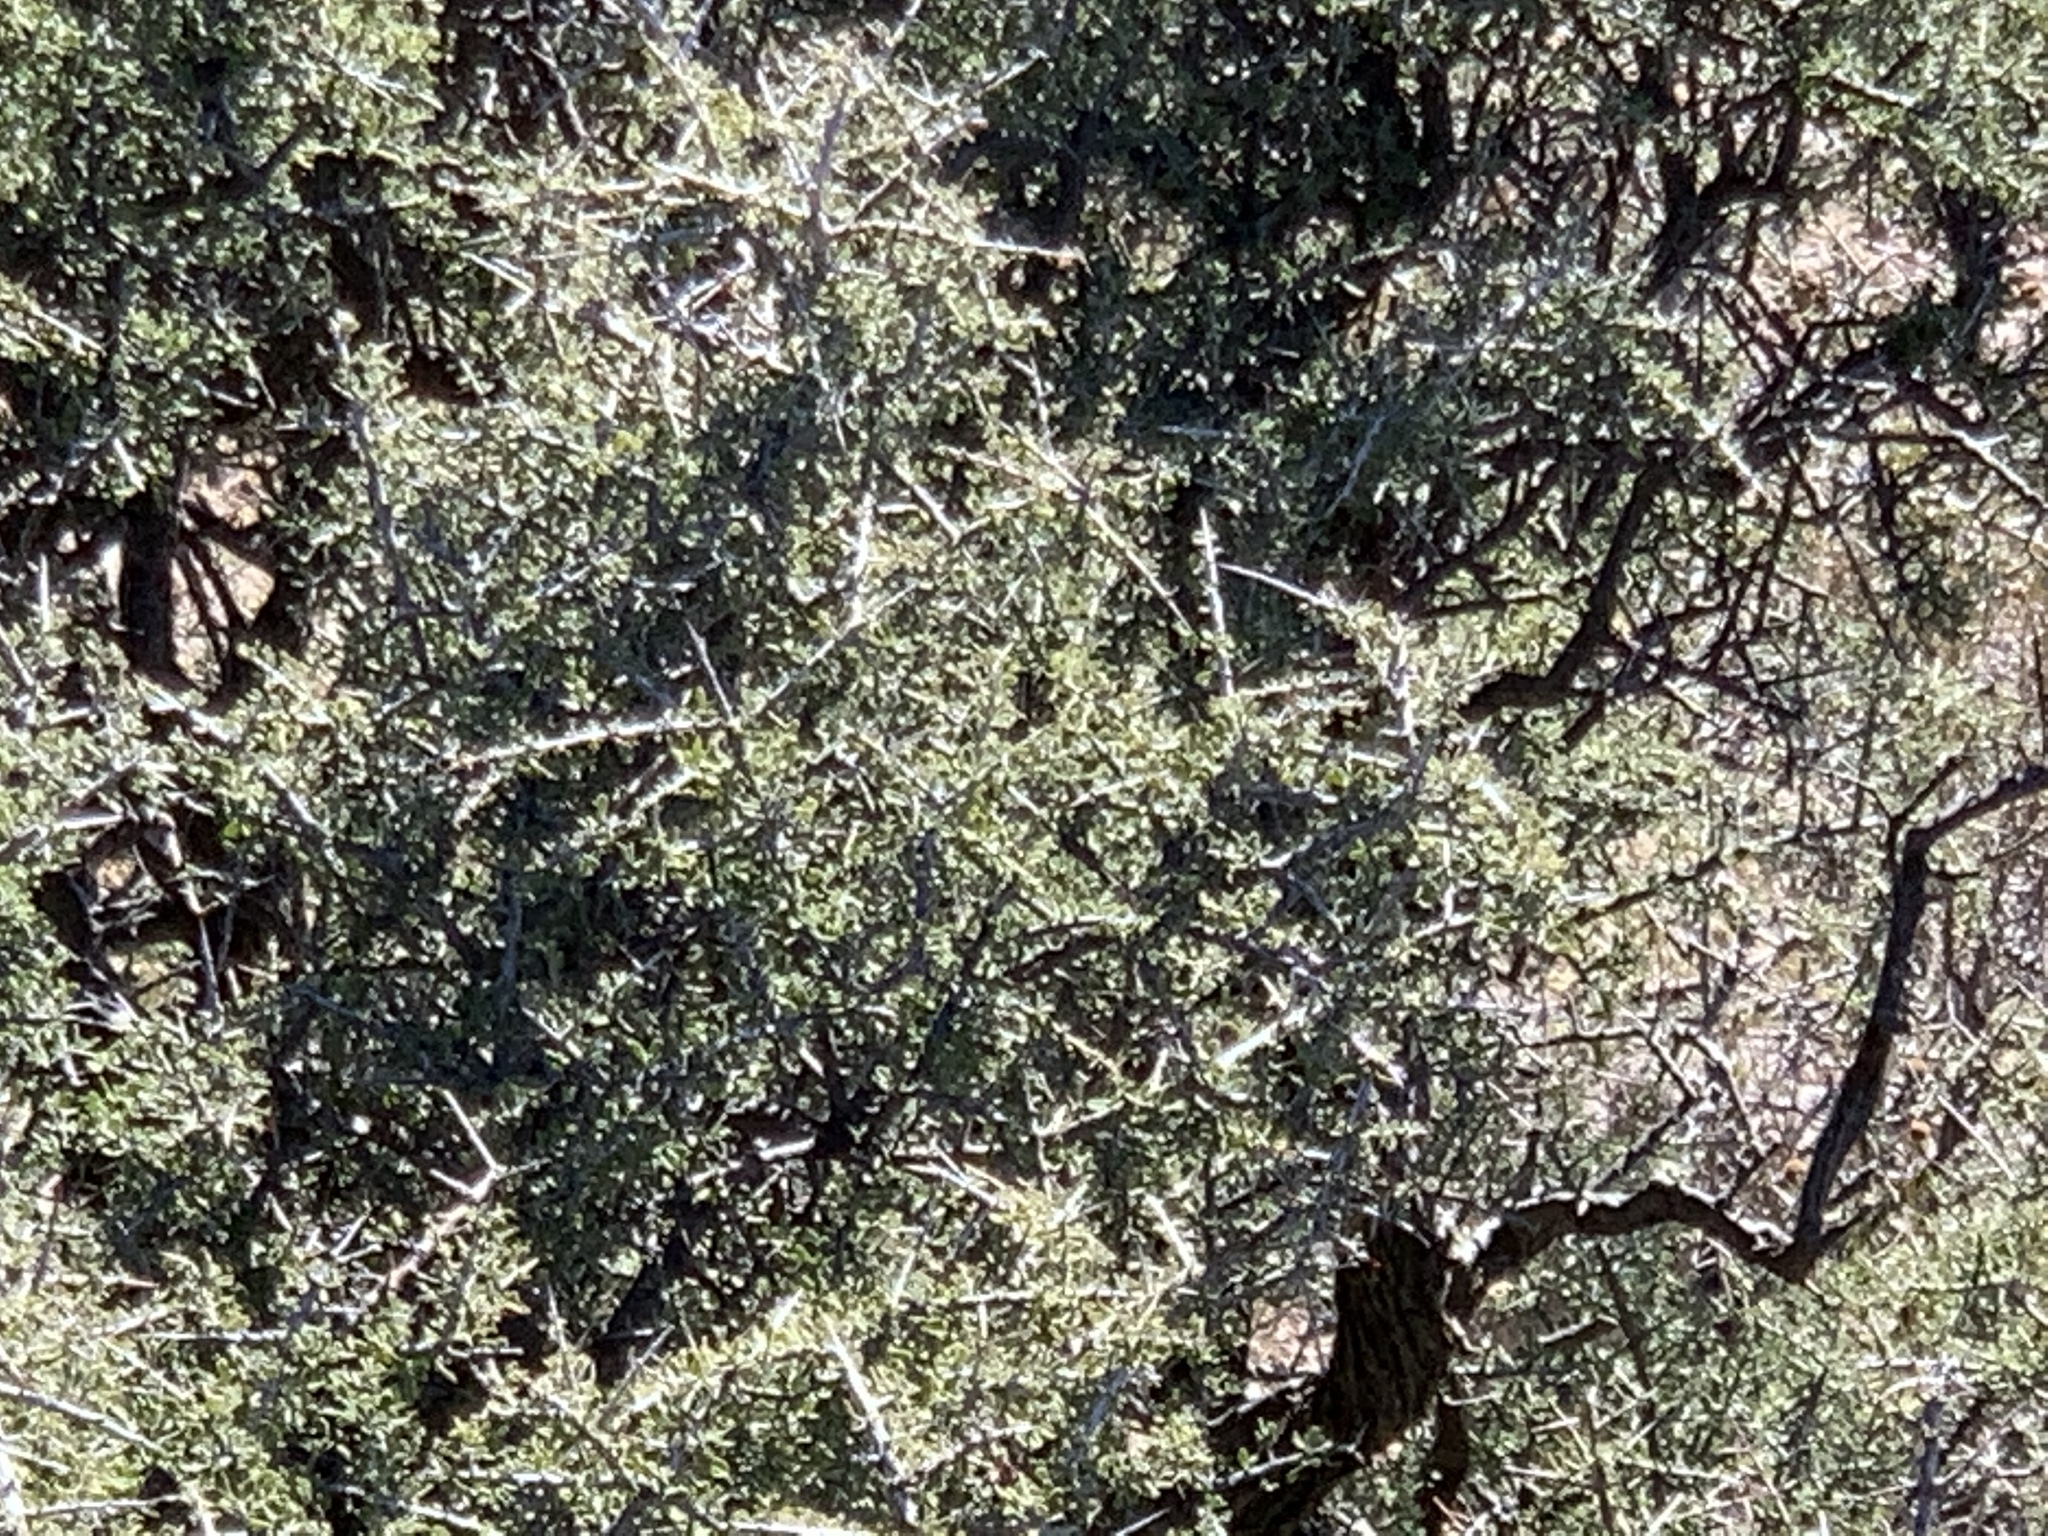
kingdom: Plantae
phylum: Tracheophyta
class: Magnoliopsida
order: Rosales
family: Rhamnaceae
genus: Condalia
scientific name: Condalia warnockii
